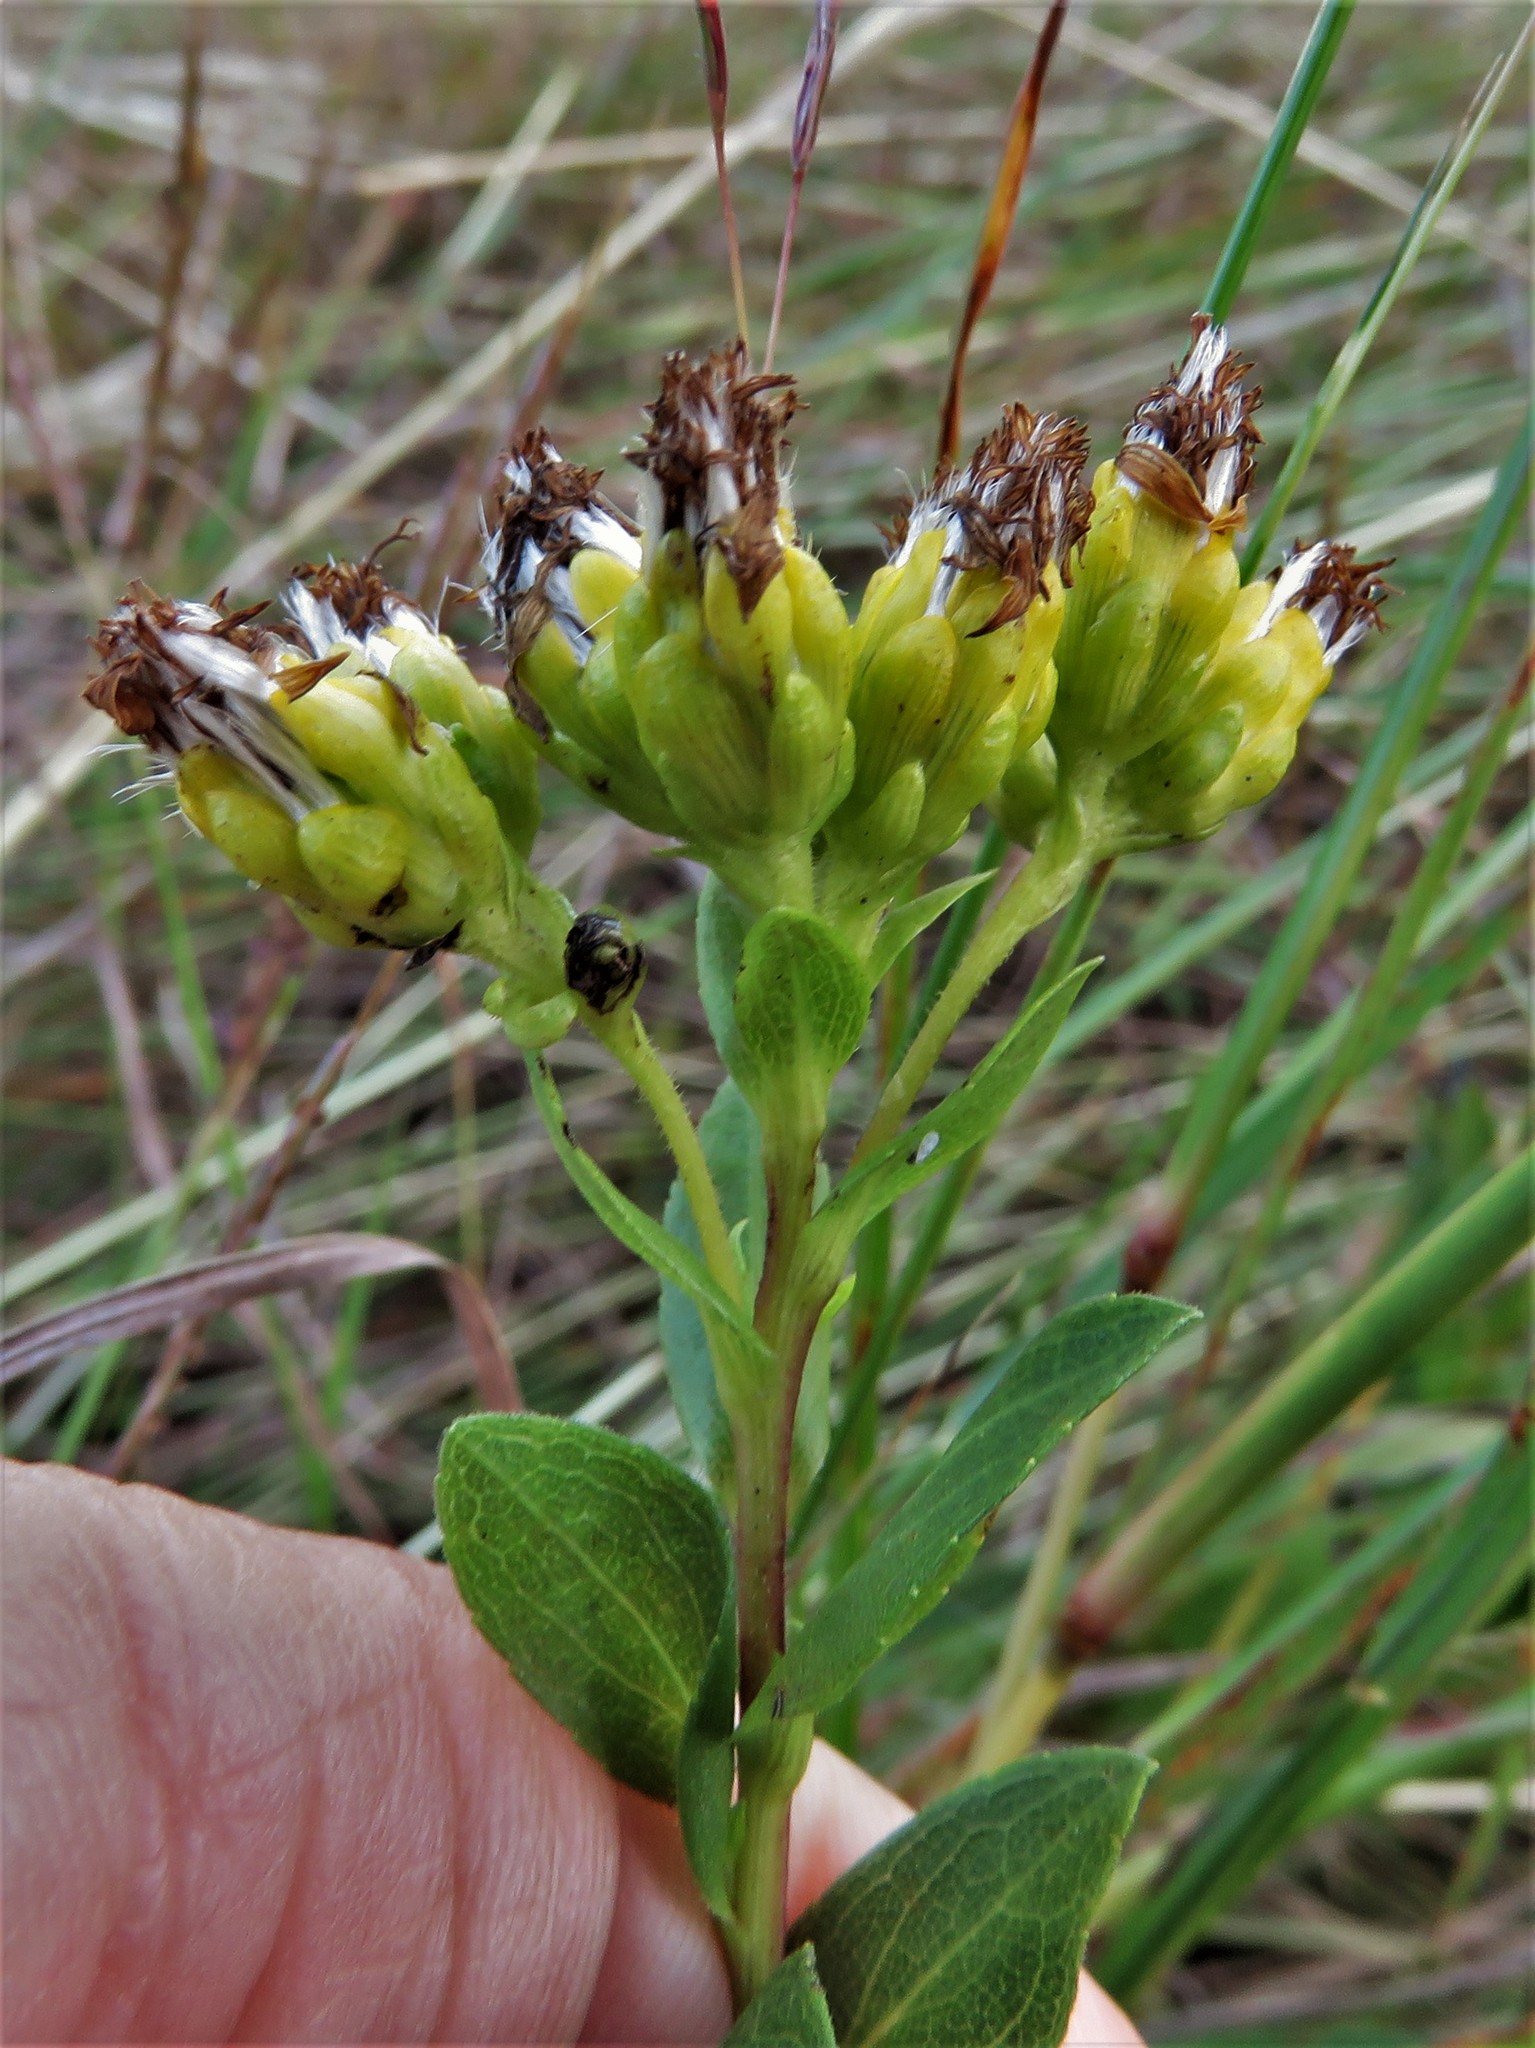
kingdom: Plantae
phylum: Tracheophyta
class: Magnoliopsida
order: Asterales
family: Asteraceae
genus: Solidago
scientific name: Solidago rigida
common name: Rigid goldenrod
